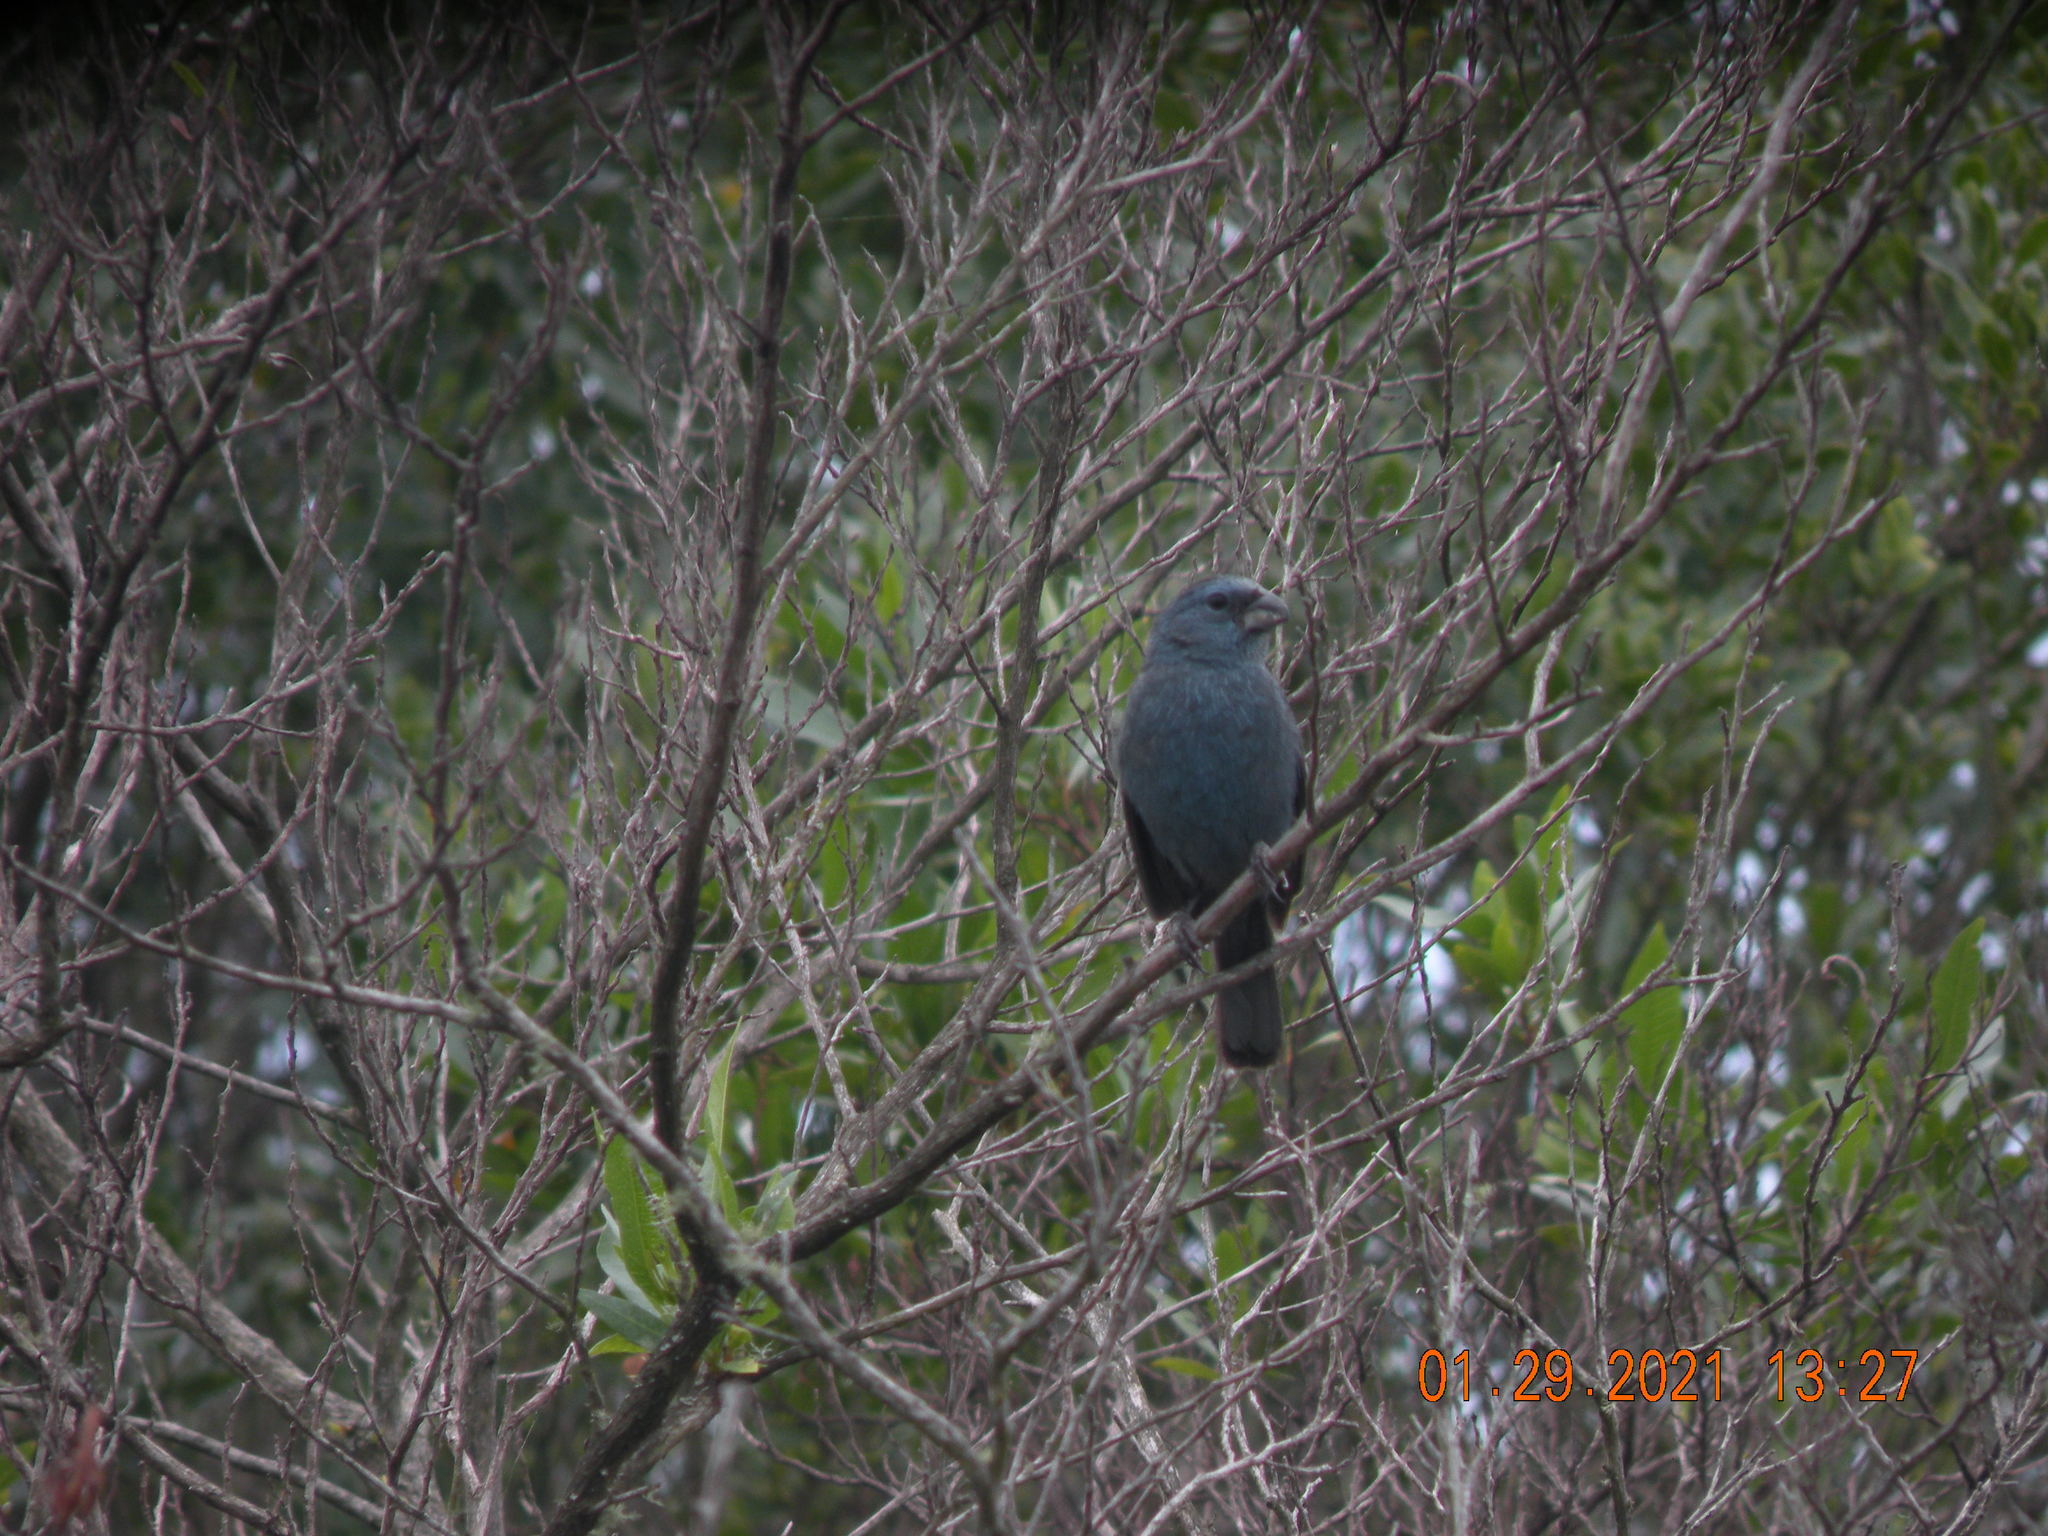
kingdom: Animalia
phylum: Chordata
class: Aves
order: Passeriformes
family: Cardinalidae
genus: Cyanoloxia
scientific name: Cyanoloxia glaucocaerulea
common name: Glaucous-blue grosbeak
